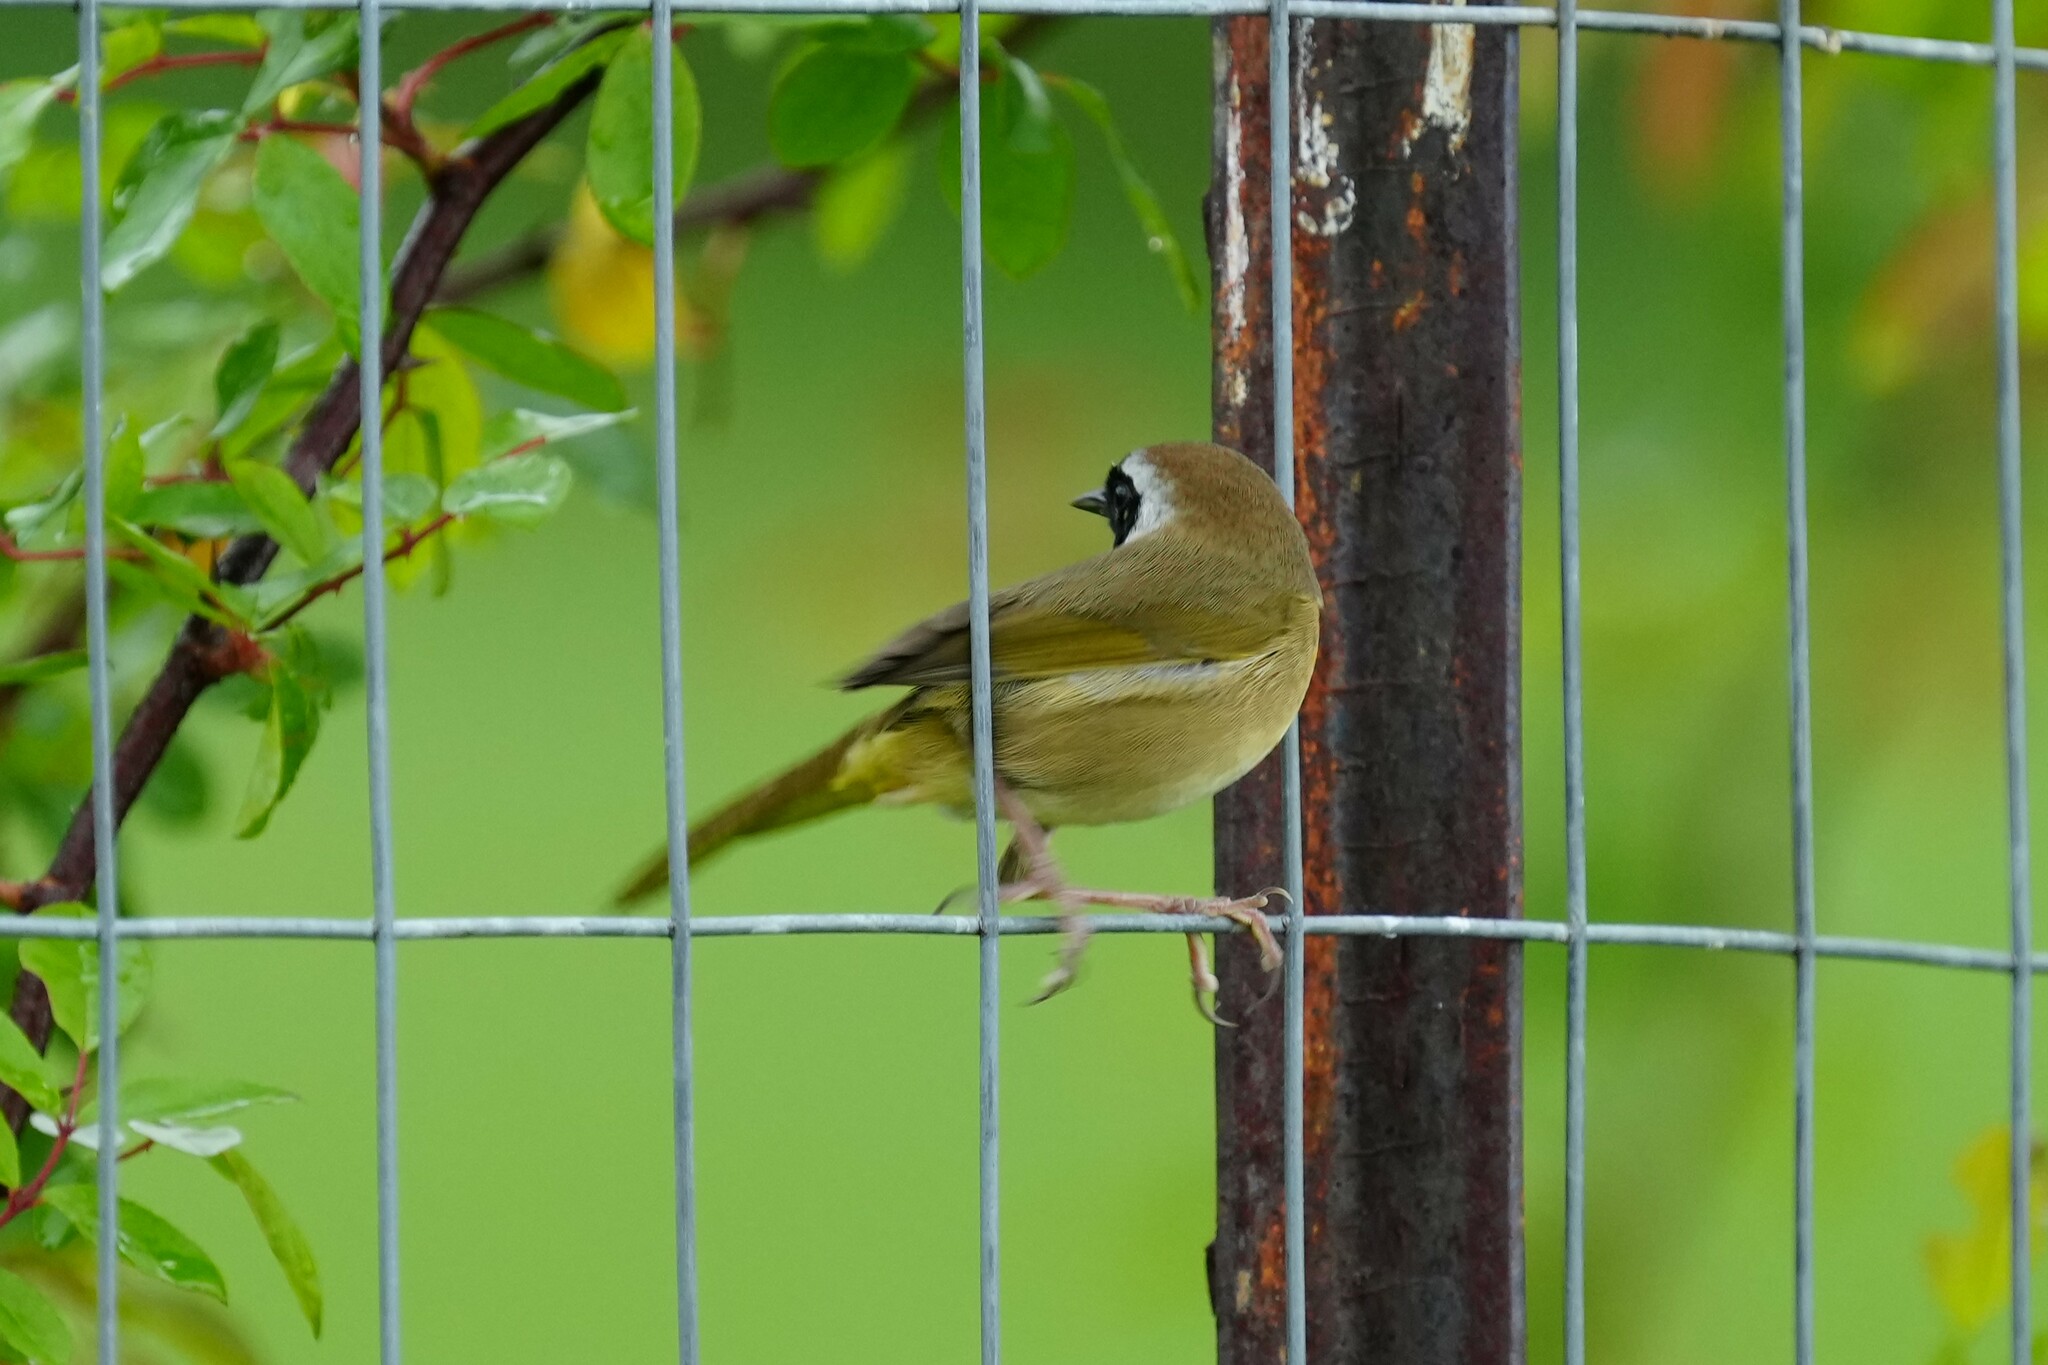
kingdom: Animalia
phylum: Chordata
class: Aves
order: Passeriformes
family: Parulidae
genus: Geothlypis
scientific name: Geothlypis trichas
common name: Common yellowthroat
